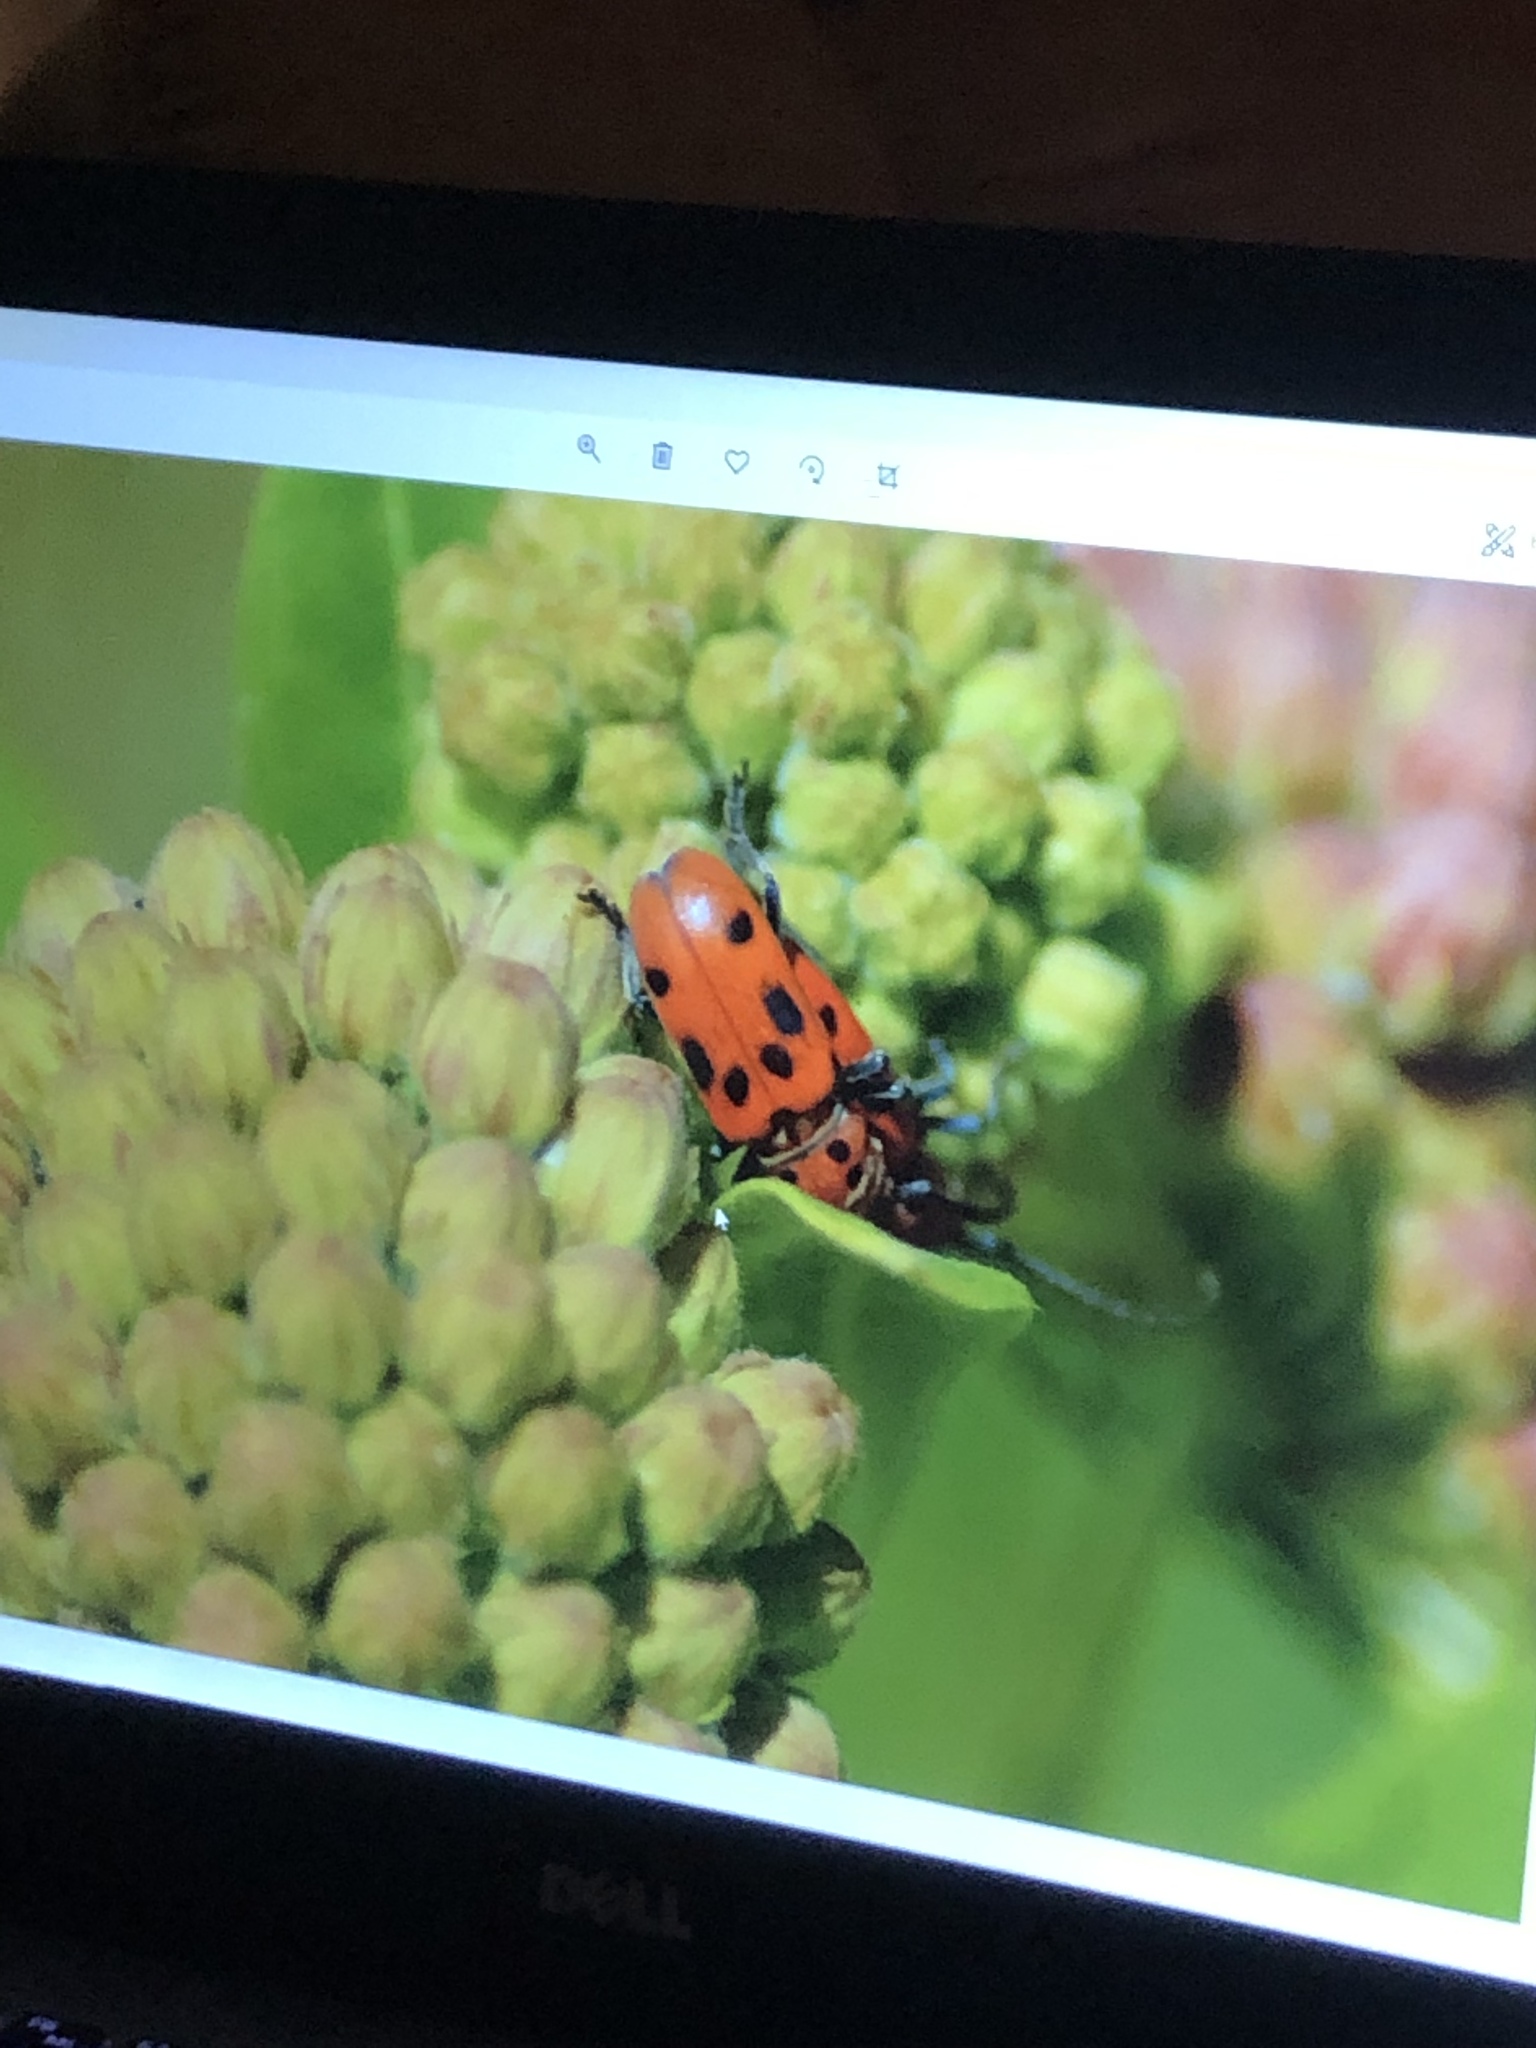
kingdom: Animalia
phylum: Arthropoda
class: Insecta
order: Coleoptera
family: Cerambycidae
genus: Tetraopes
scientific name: Tetraopes tetrophthalmus
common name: Red milkweed beetle
